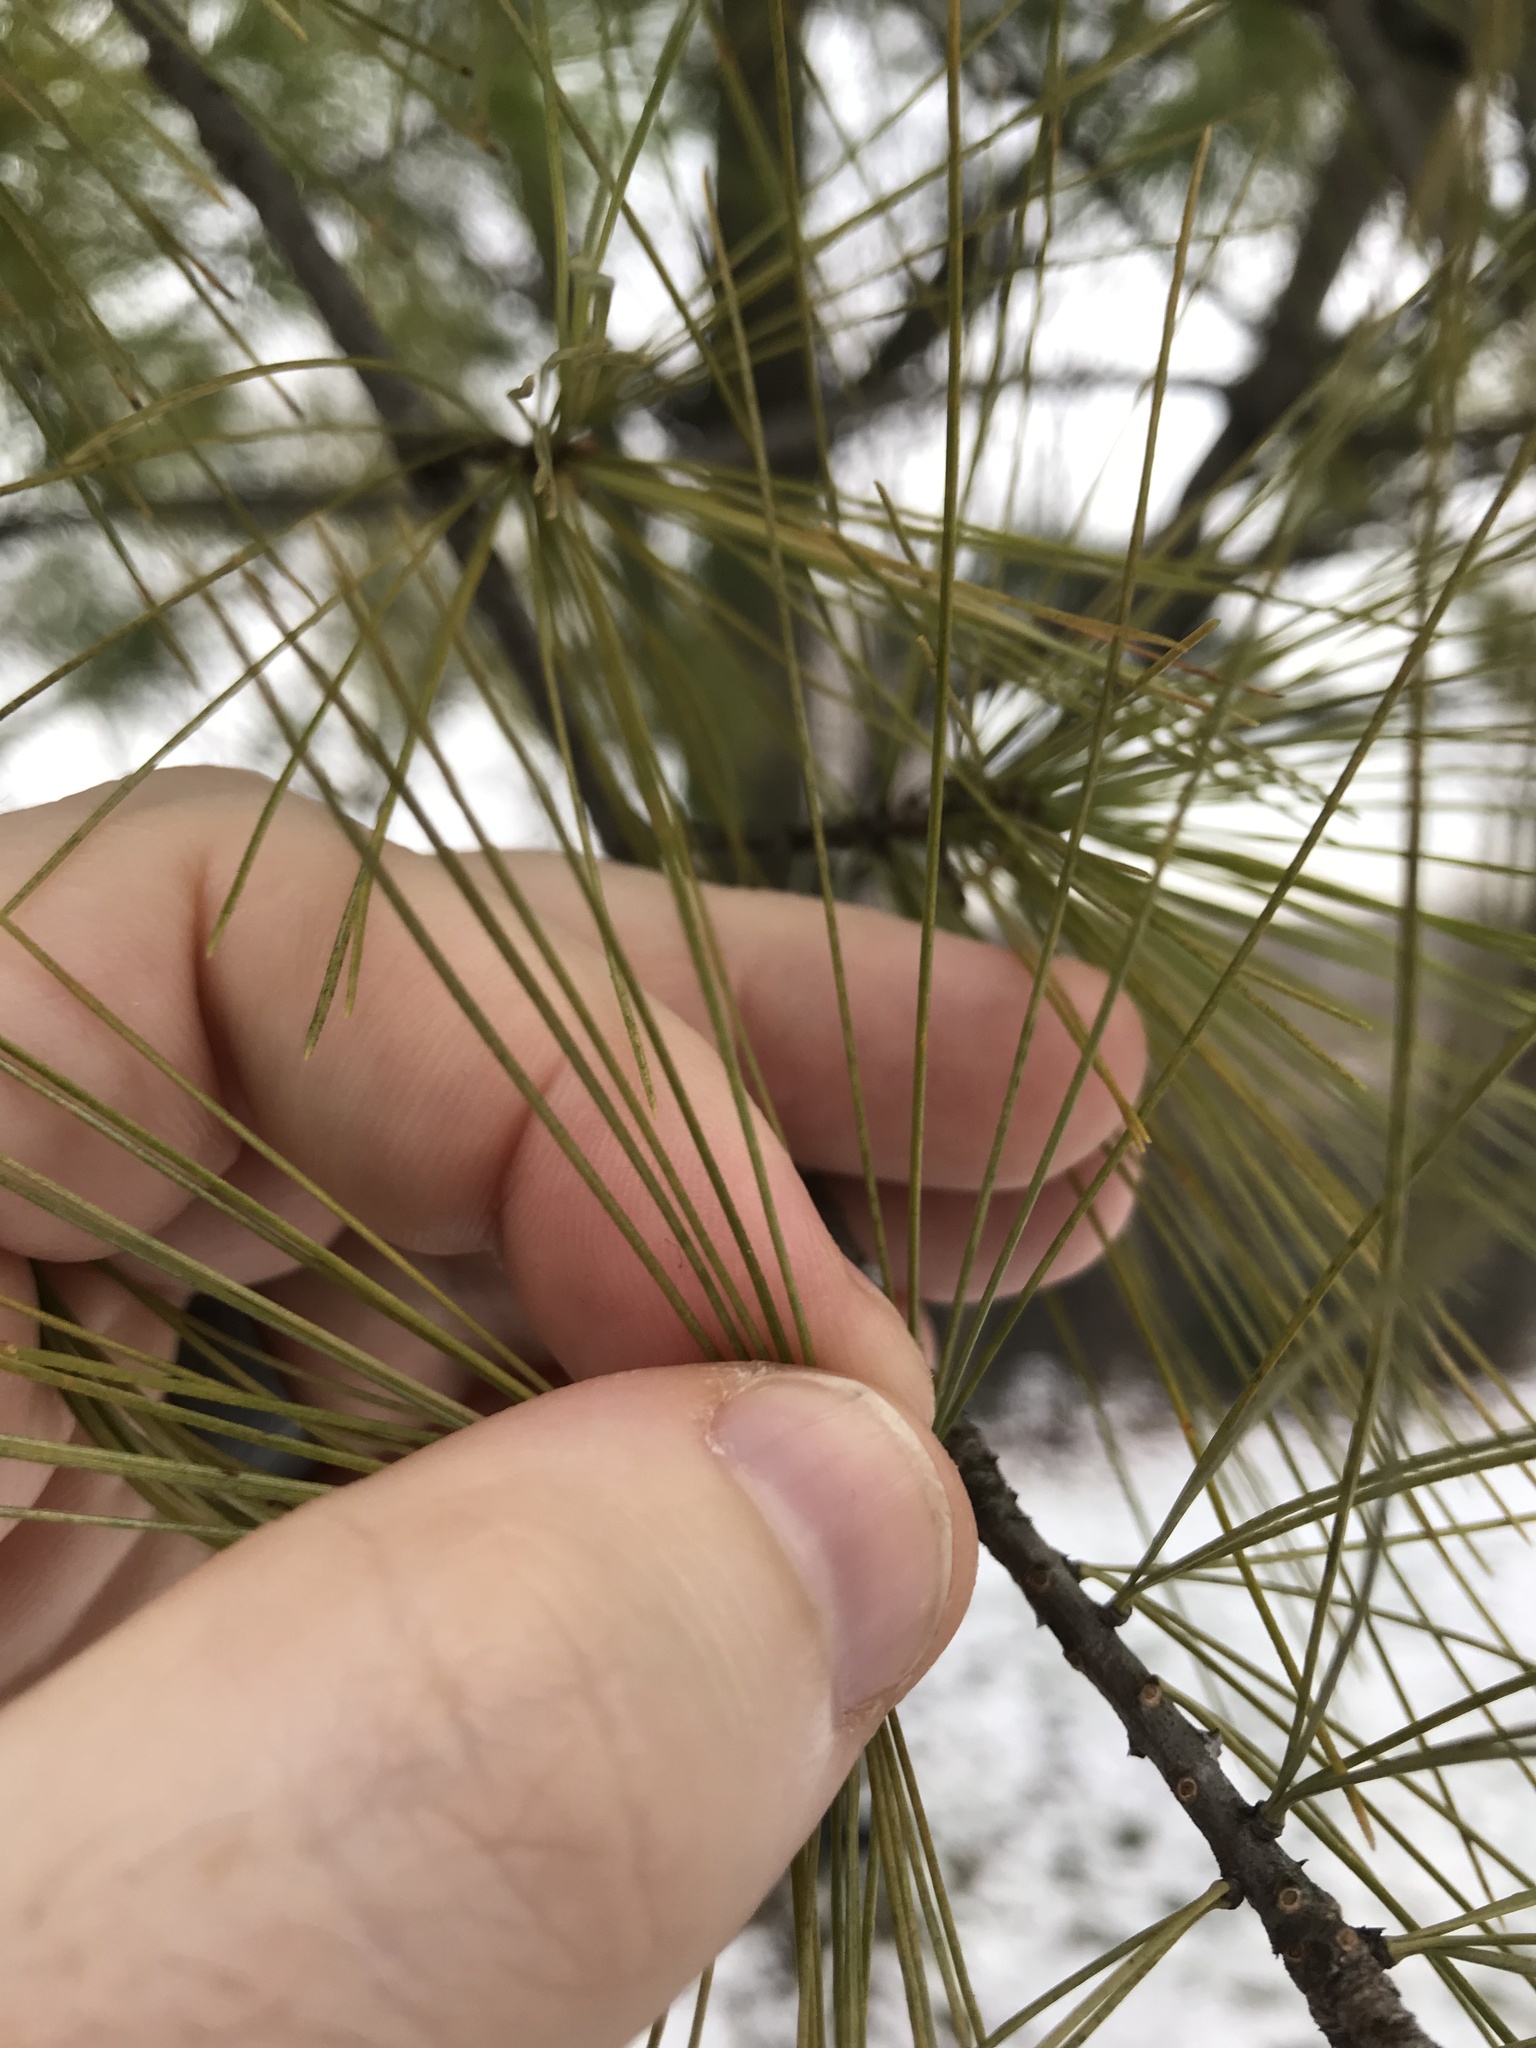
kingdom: Plantae
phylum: Tracheophyta
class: Pinopsida
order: Pinales
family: Pinaceae
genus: Pinus
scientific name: Pinus strobus
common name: Weymouth pine
